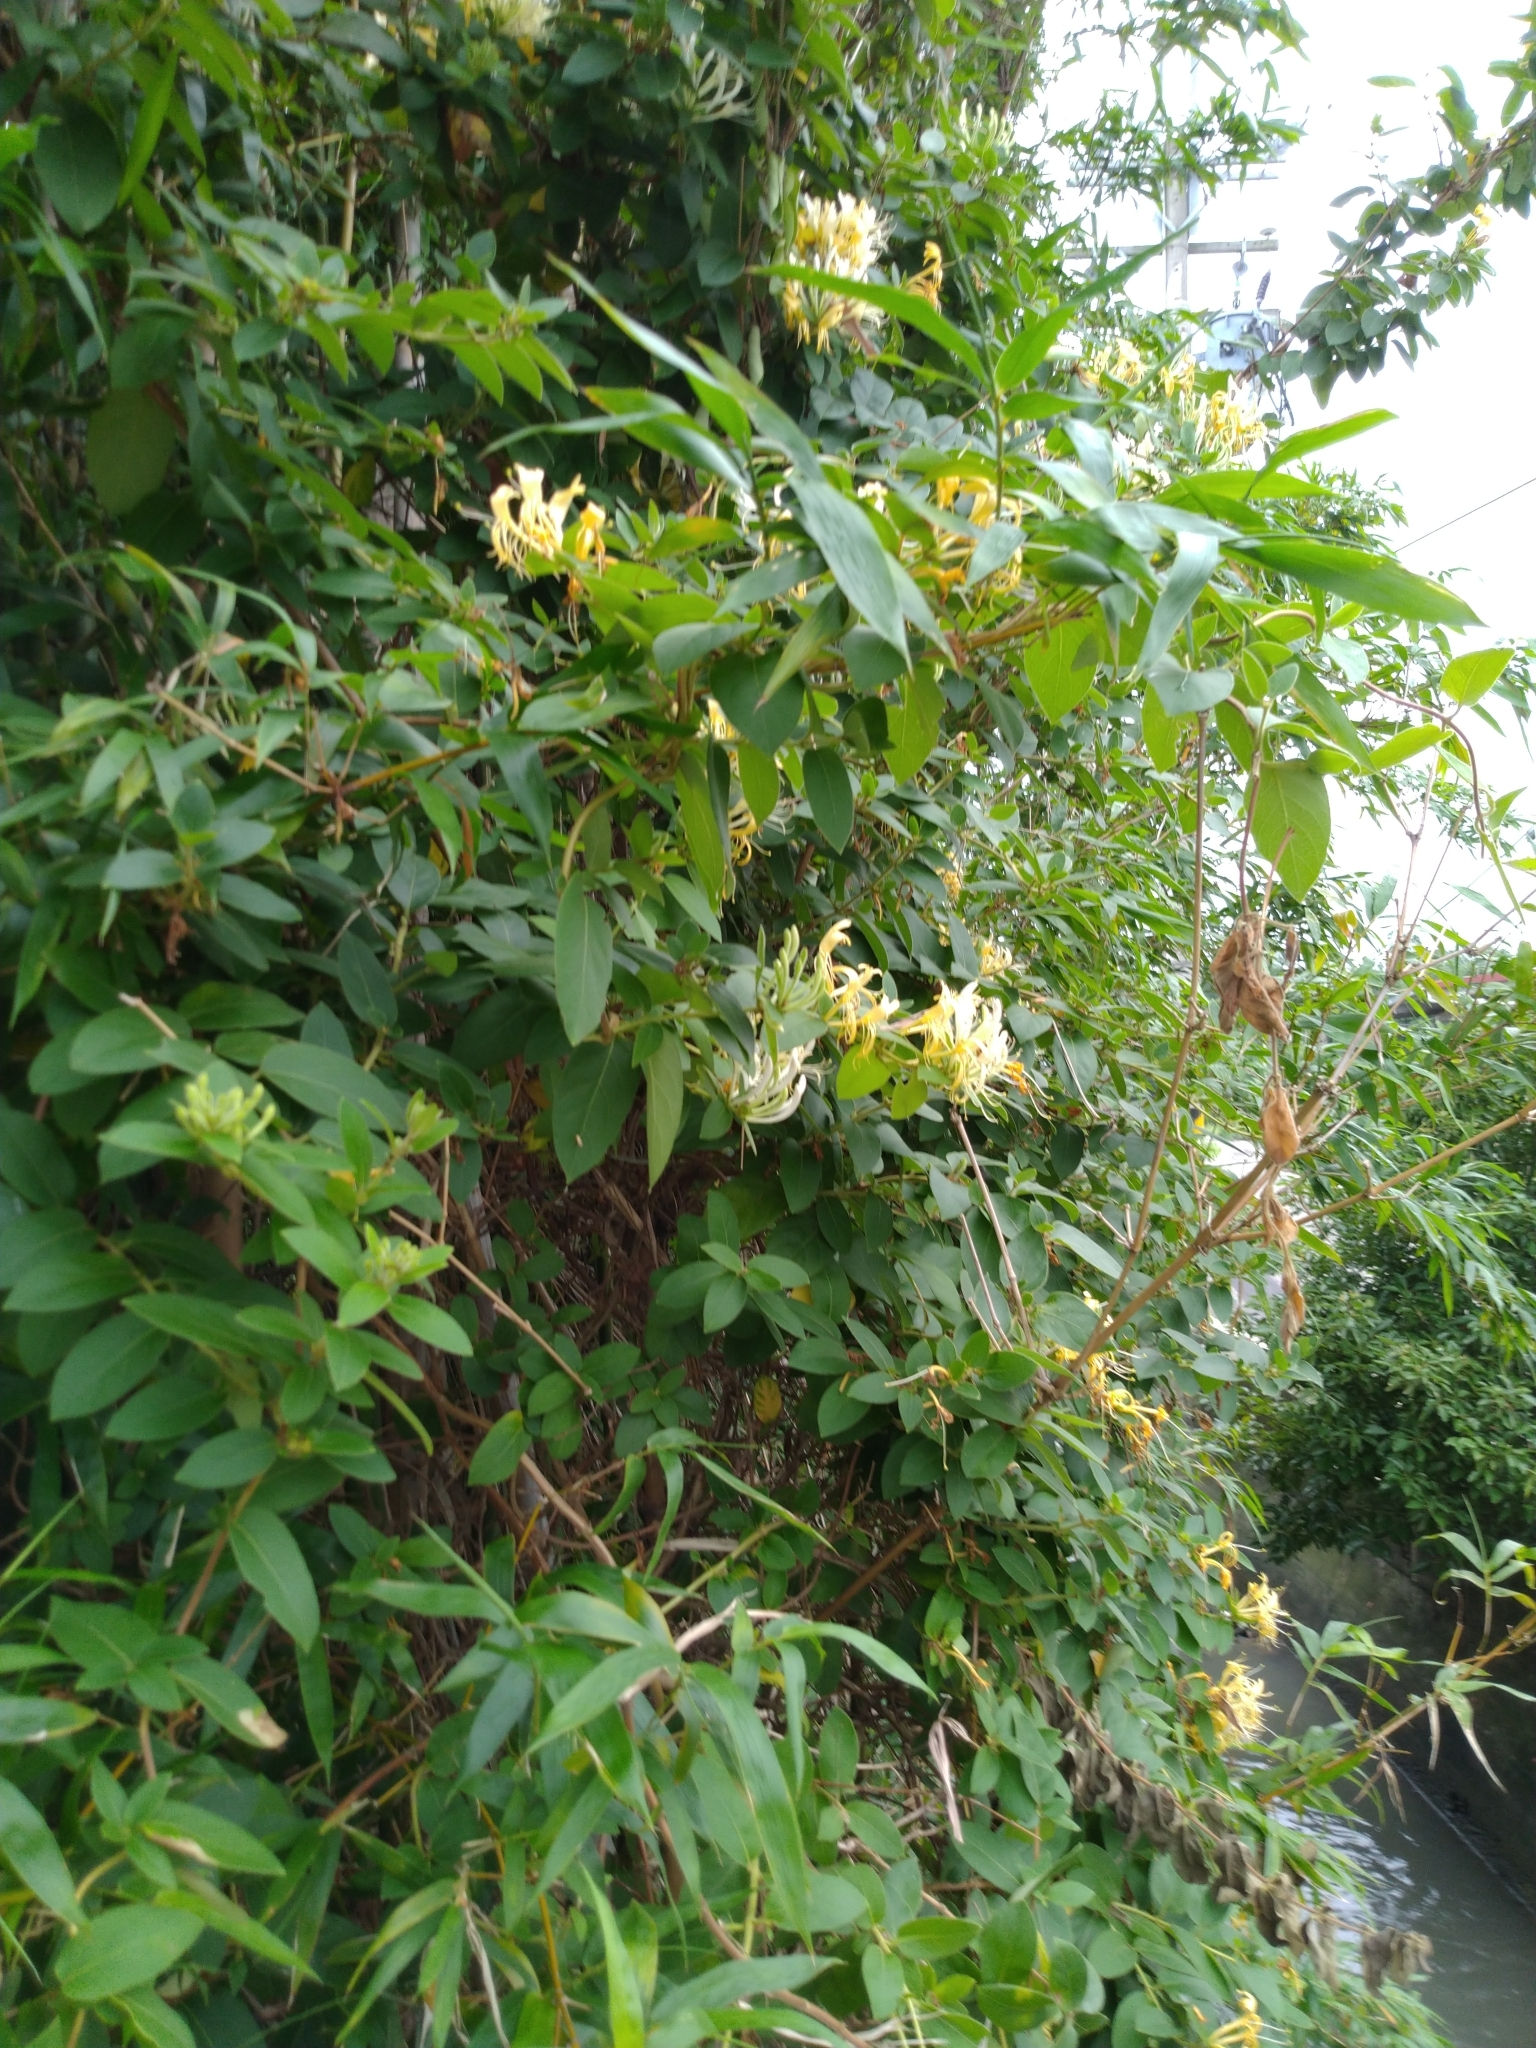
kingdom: Plantae
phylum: Tracheophyta
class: Magnoliopsida
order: Dipsacales
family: Caprifoliaceae
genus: Lonicera
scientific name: Lonicera japonica
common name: Japanese honeysuckle
